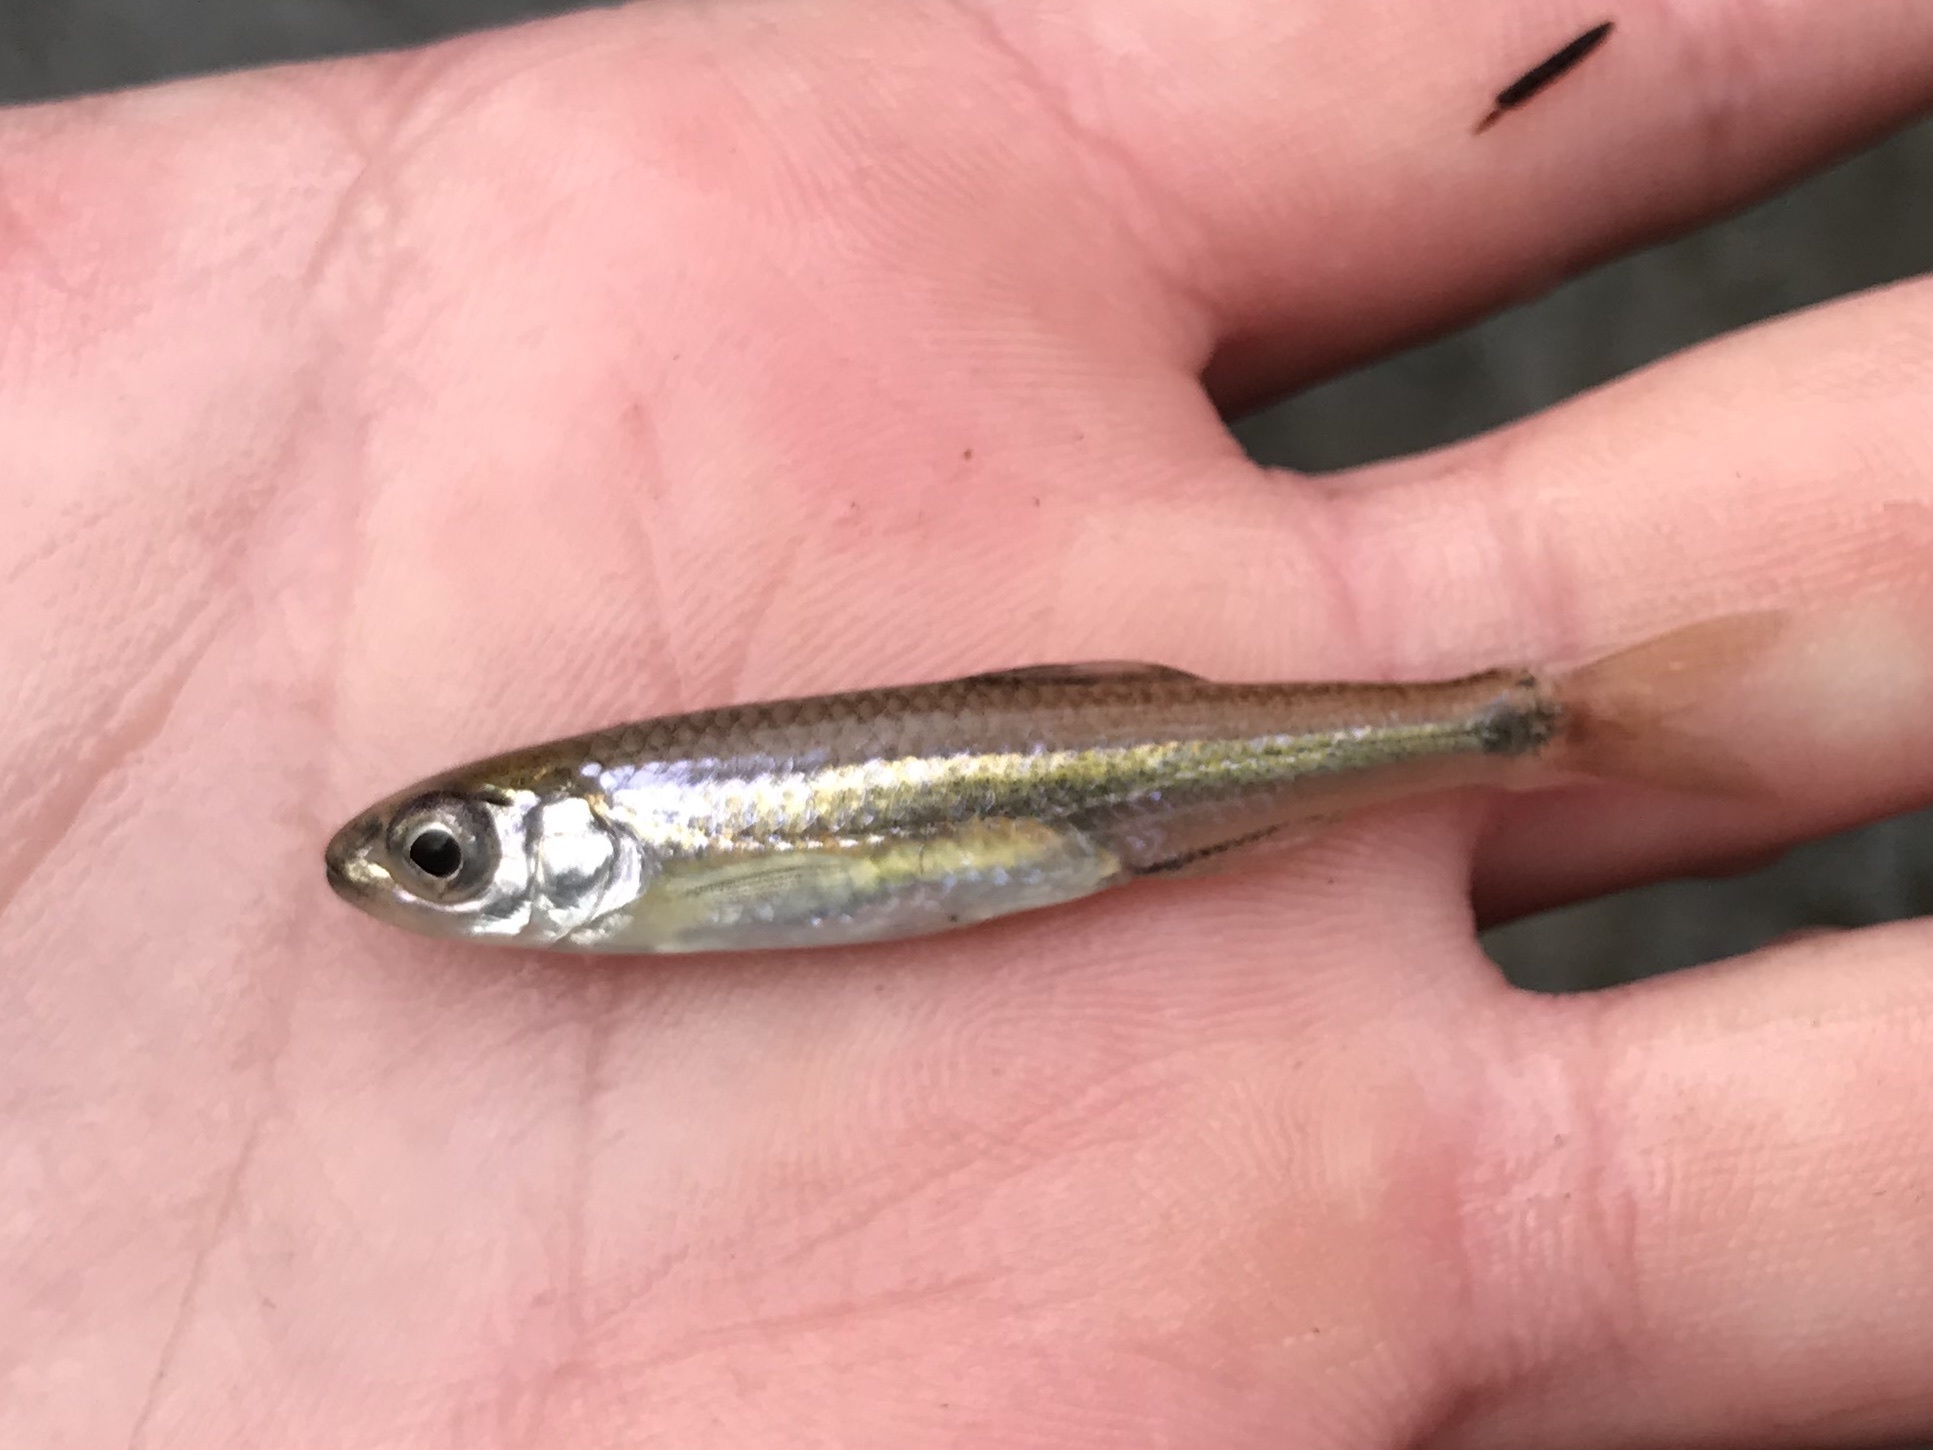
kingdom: Animalia
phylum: Chordata
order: Cypriniformes
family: Cyprinidae
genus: Notropis
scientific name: Notropis amabilis
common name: Texas shiner
